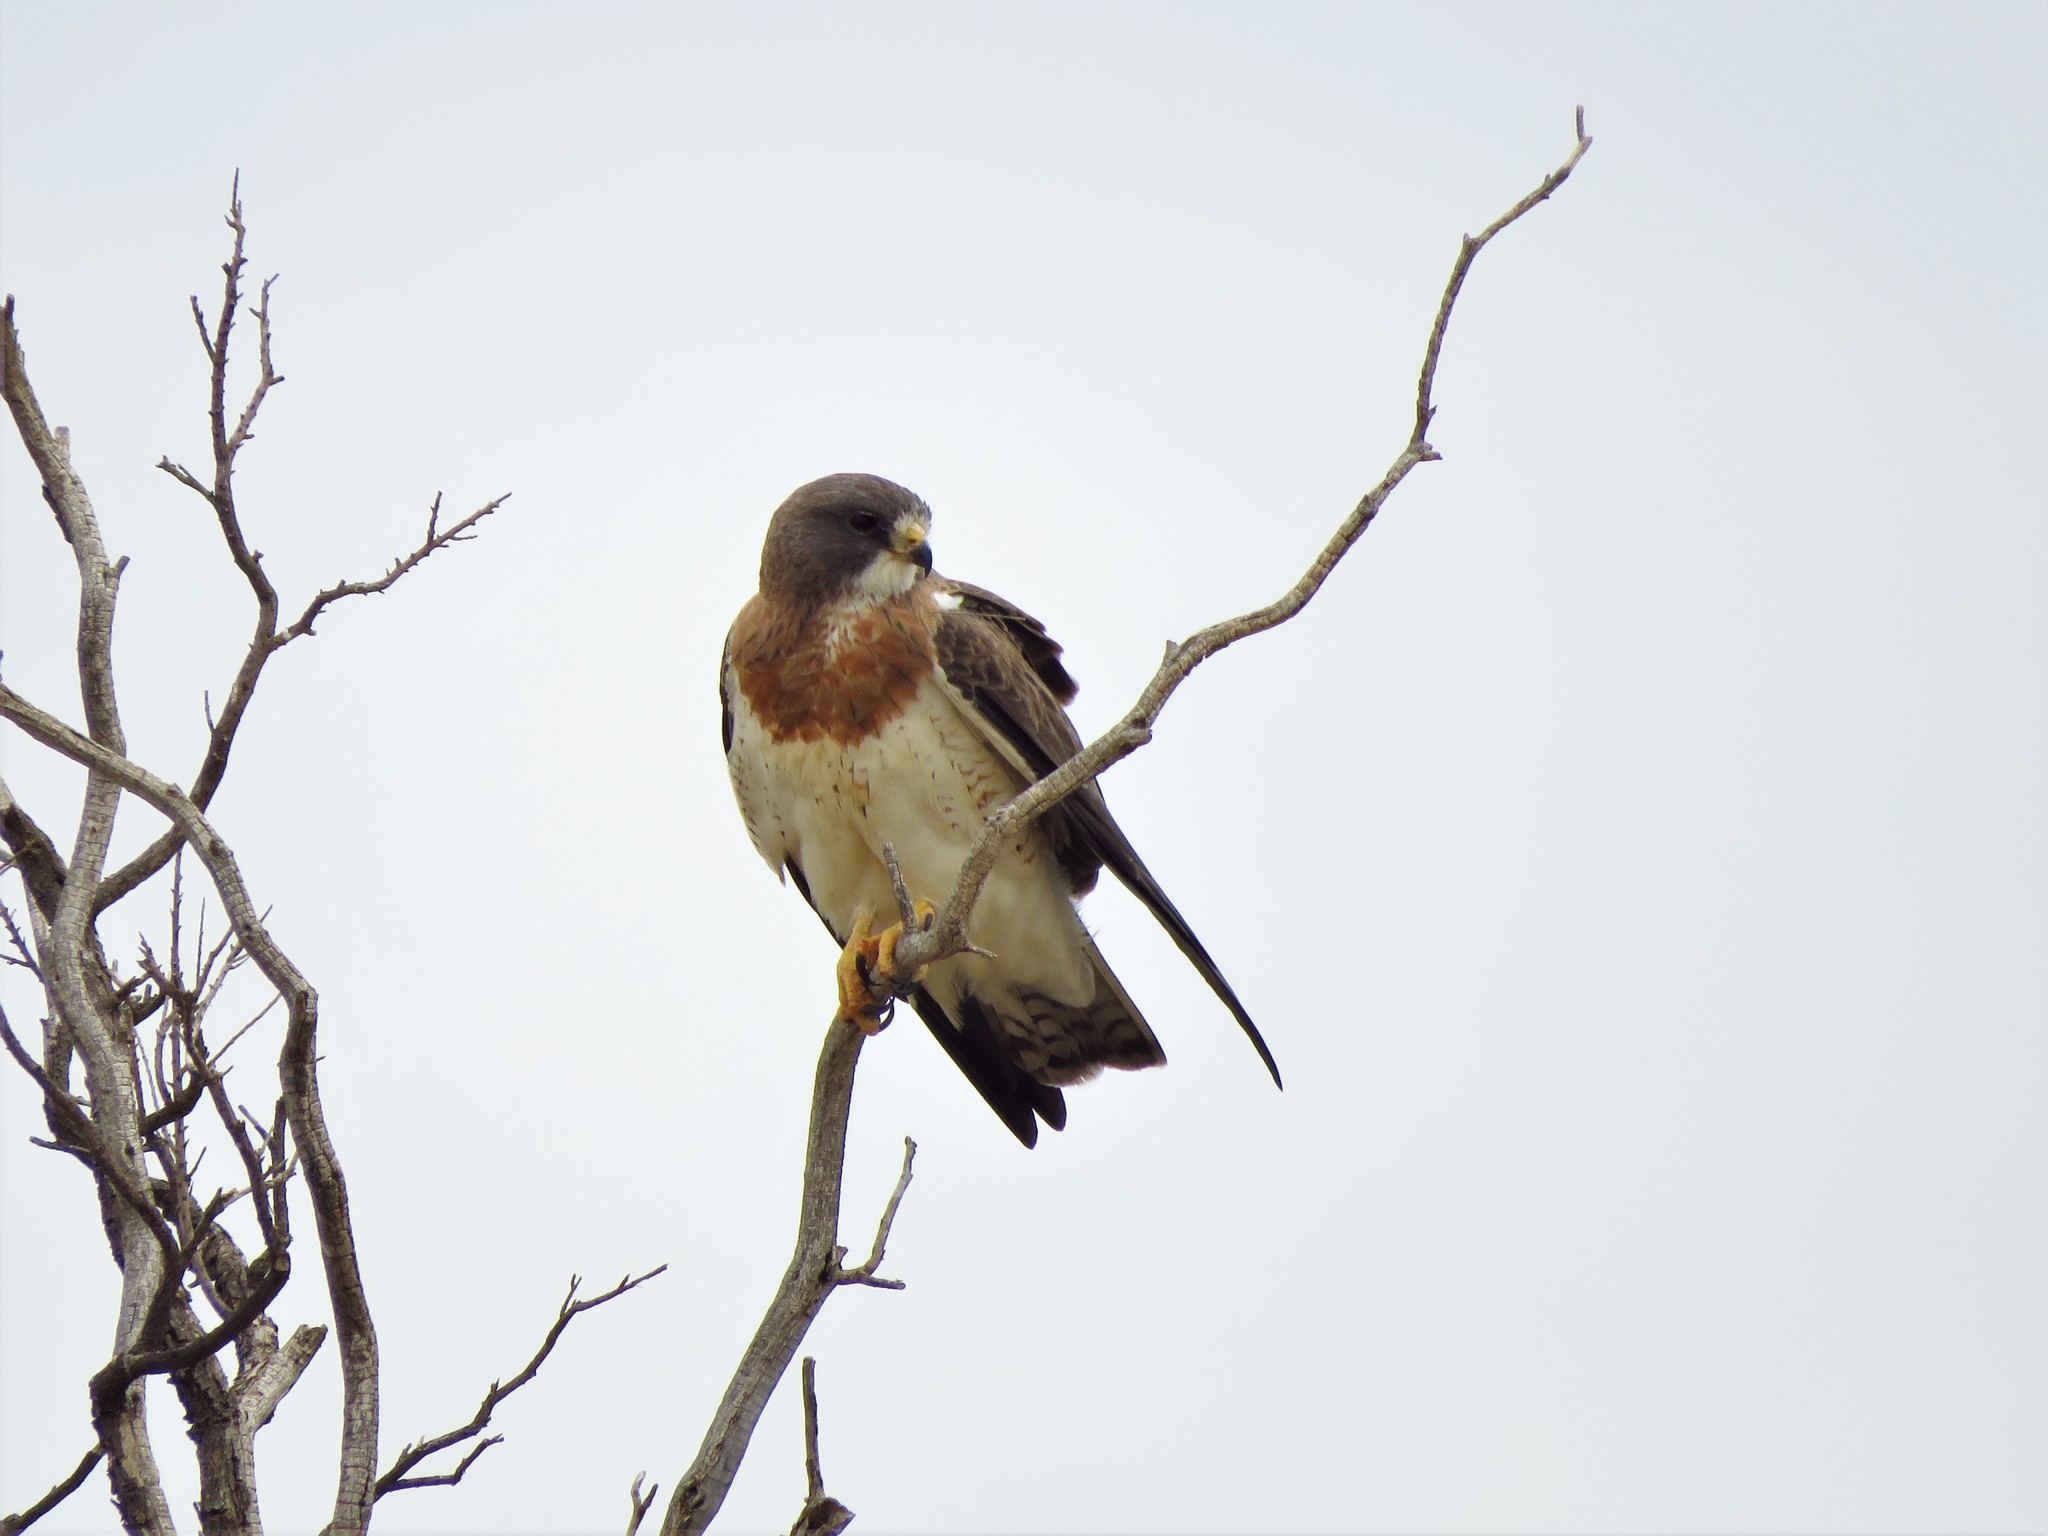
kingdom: Animalia
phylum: Chordata
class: Aves
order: Accipitriformes
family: Accipitridae
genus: Buteo
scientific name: Buteo swainsoni
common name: Swainson's hawk
